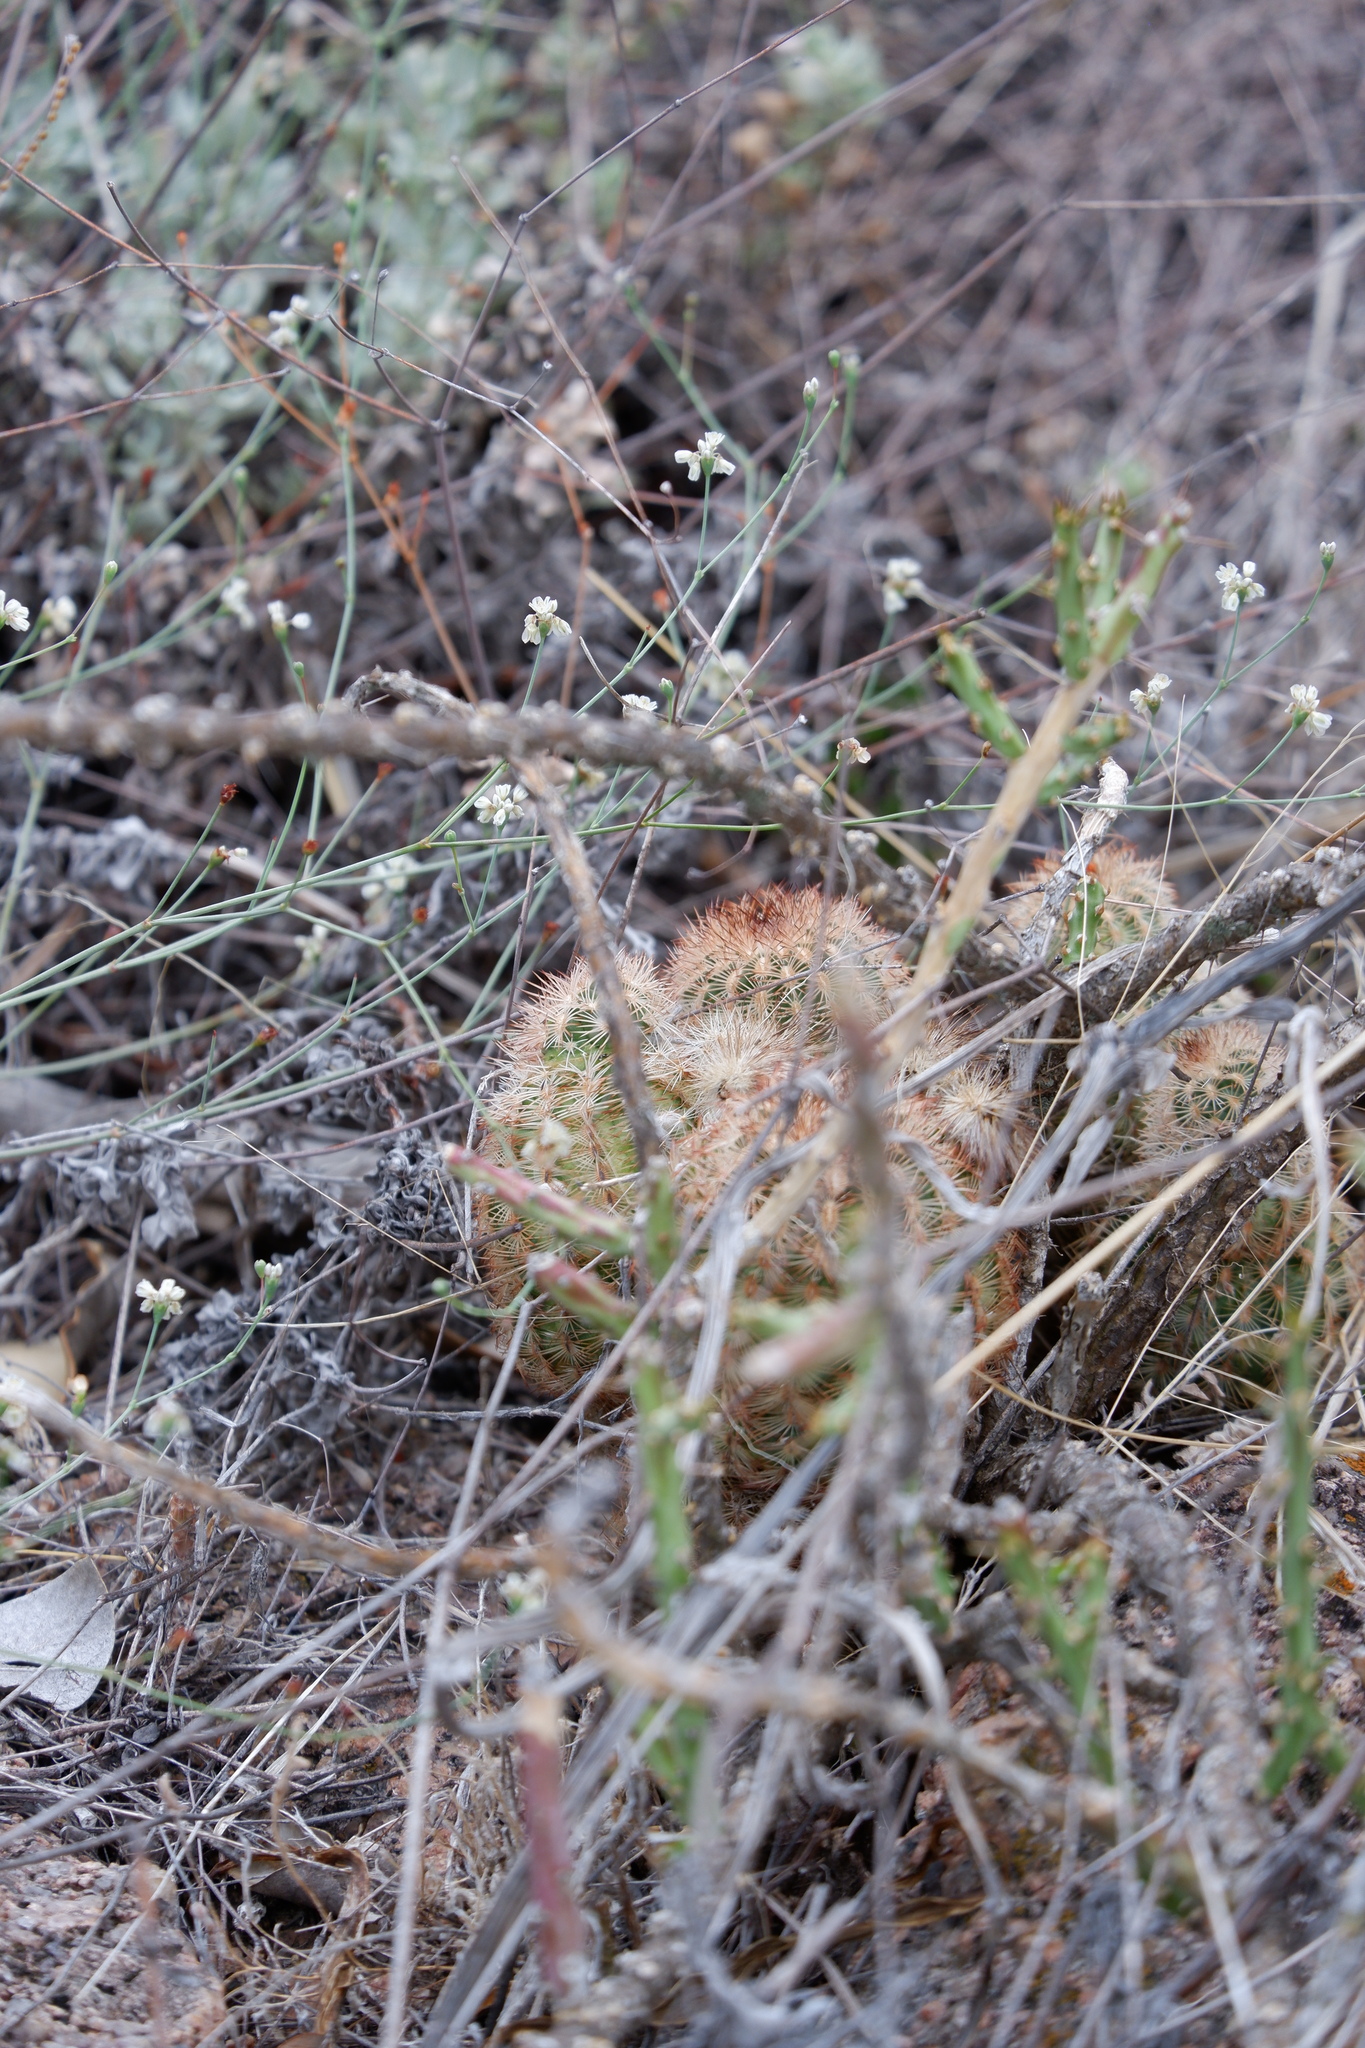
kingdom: Plantae
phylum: Tracheophyta
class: Magnoliopsida
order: Caryophyllales
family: Cactaceae
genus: Echinocereus
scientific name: Echinocereus reichenbachii
